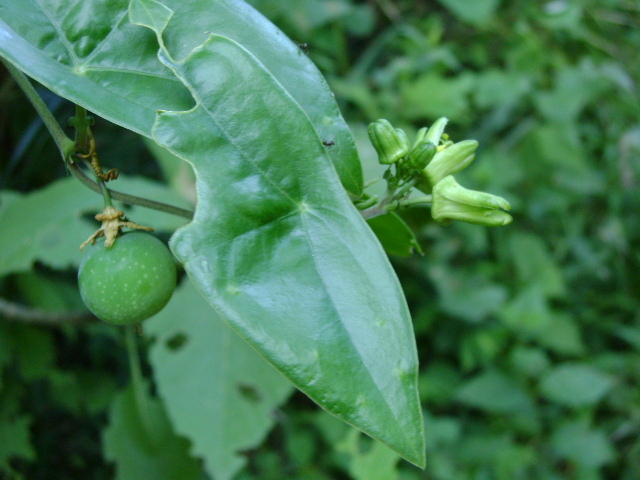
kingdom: Plantae
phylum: Tracheophyta
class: Magnoliopsida
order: Malpighiales
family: Passifloraceae
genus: Passiflora
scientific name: Passiflora sexocellata
